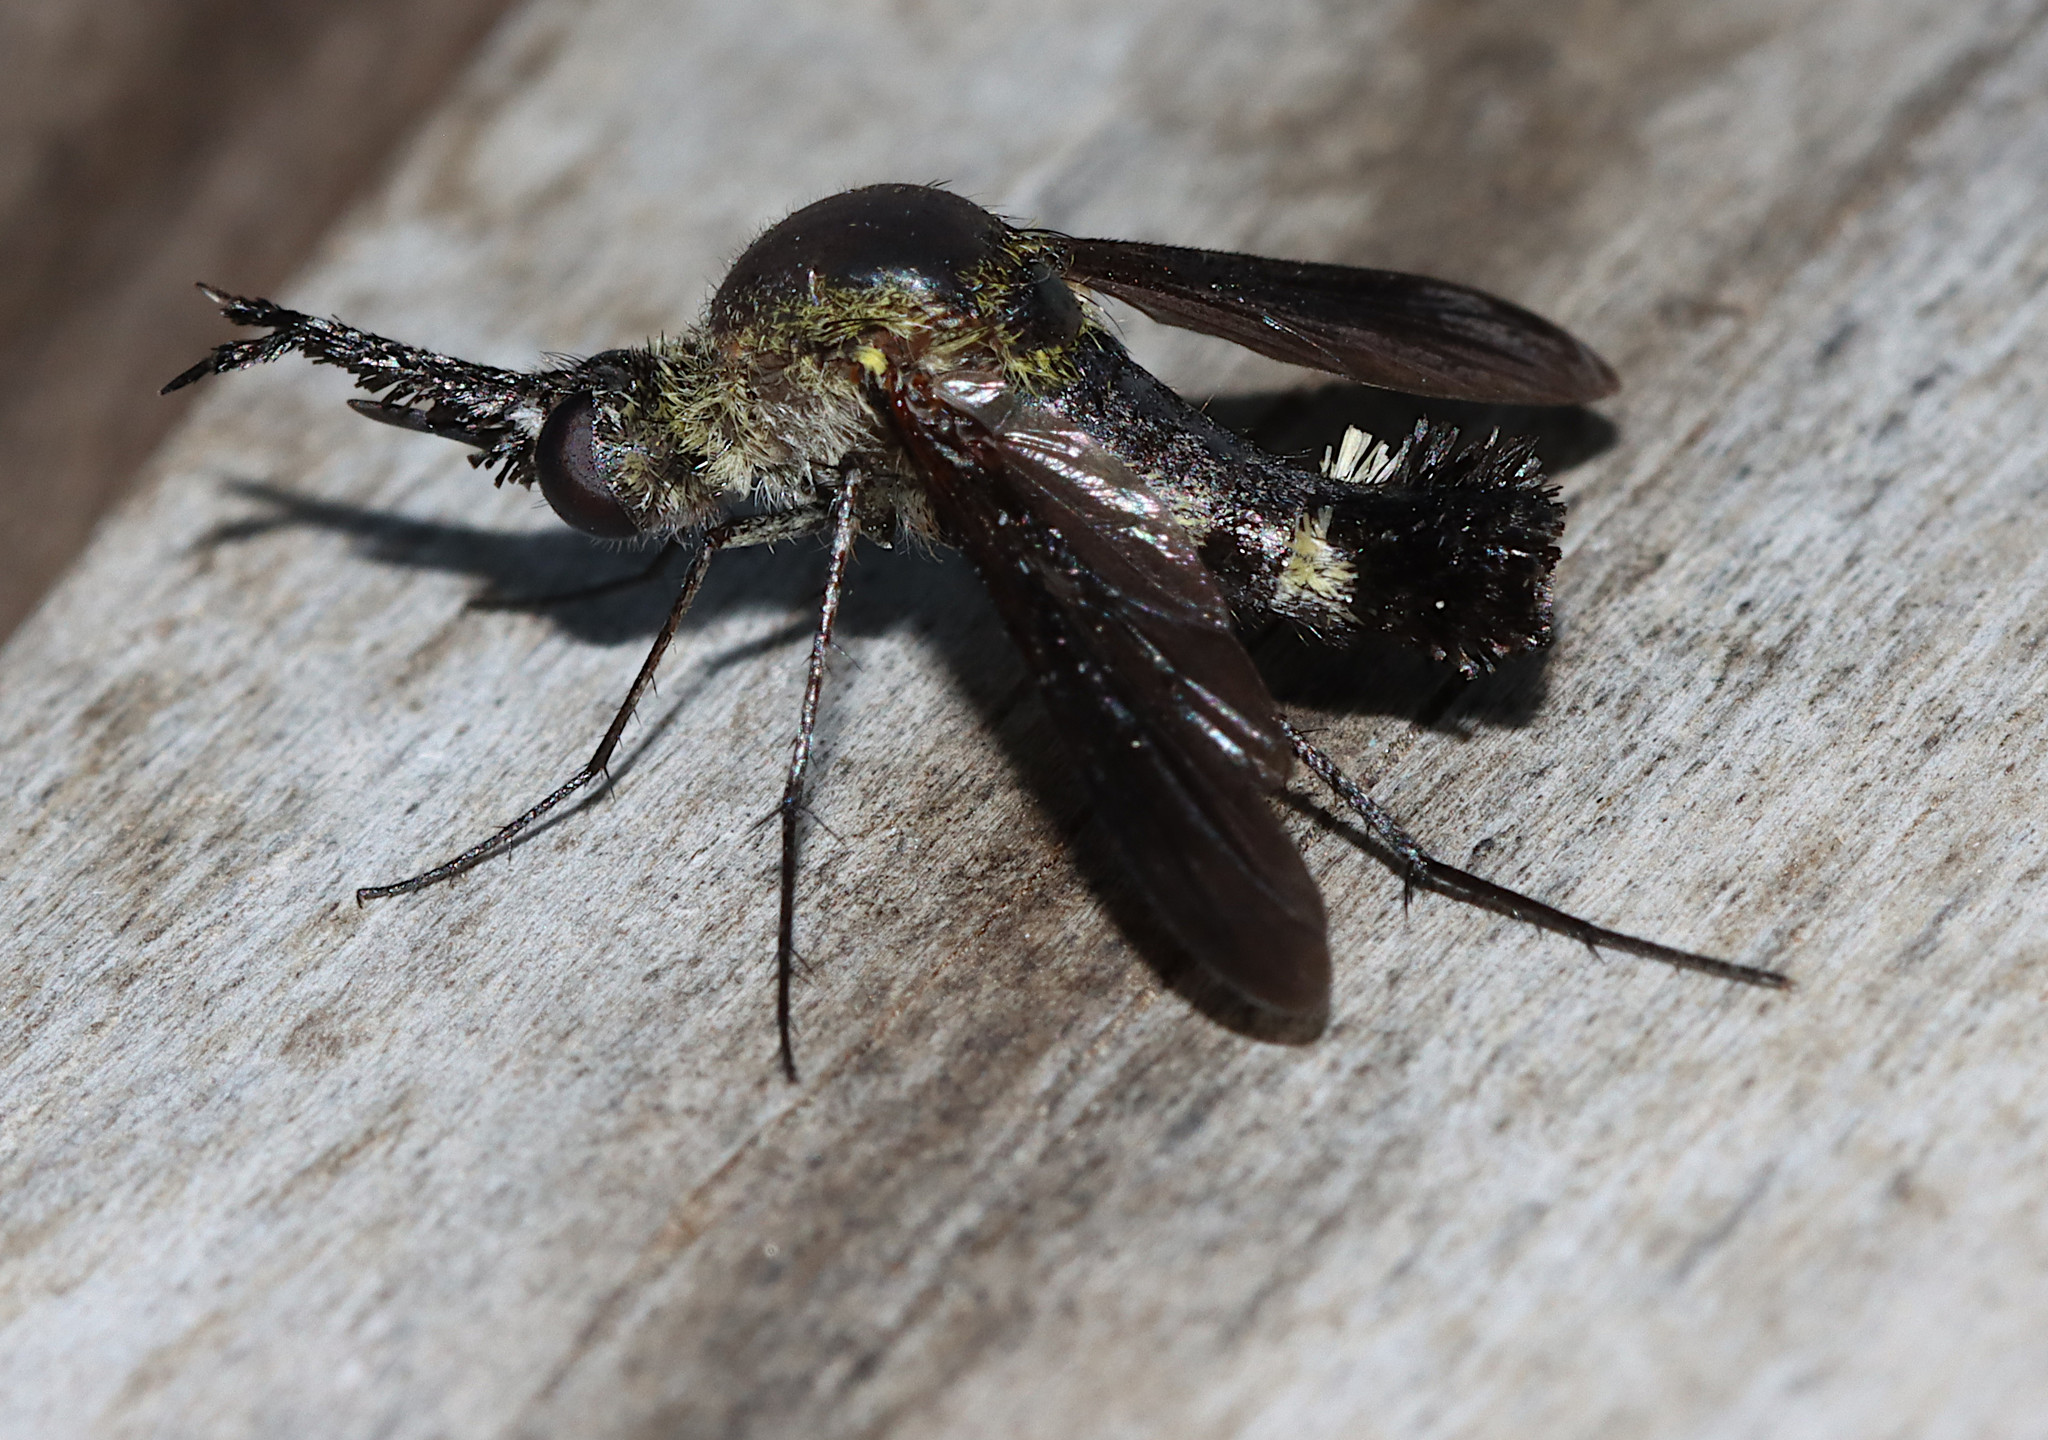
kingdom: Animalia
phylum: Arthropoda
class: Insecta
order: Diptera
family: Bombyliidae
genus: Lepidophora
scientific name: Lepidophora lepidocera
